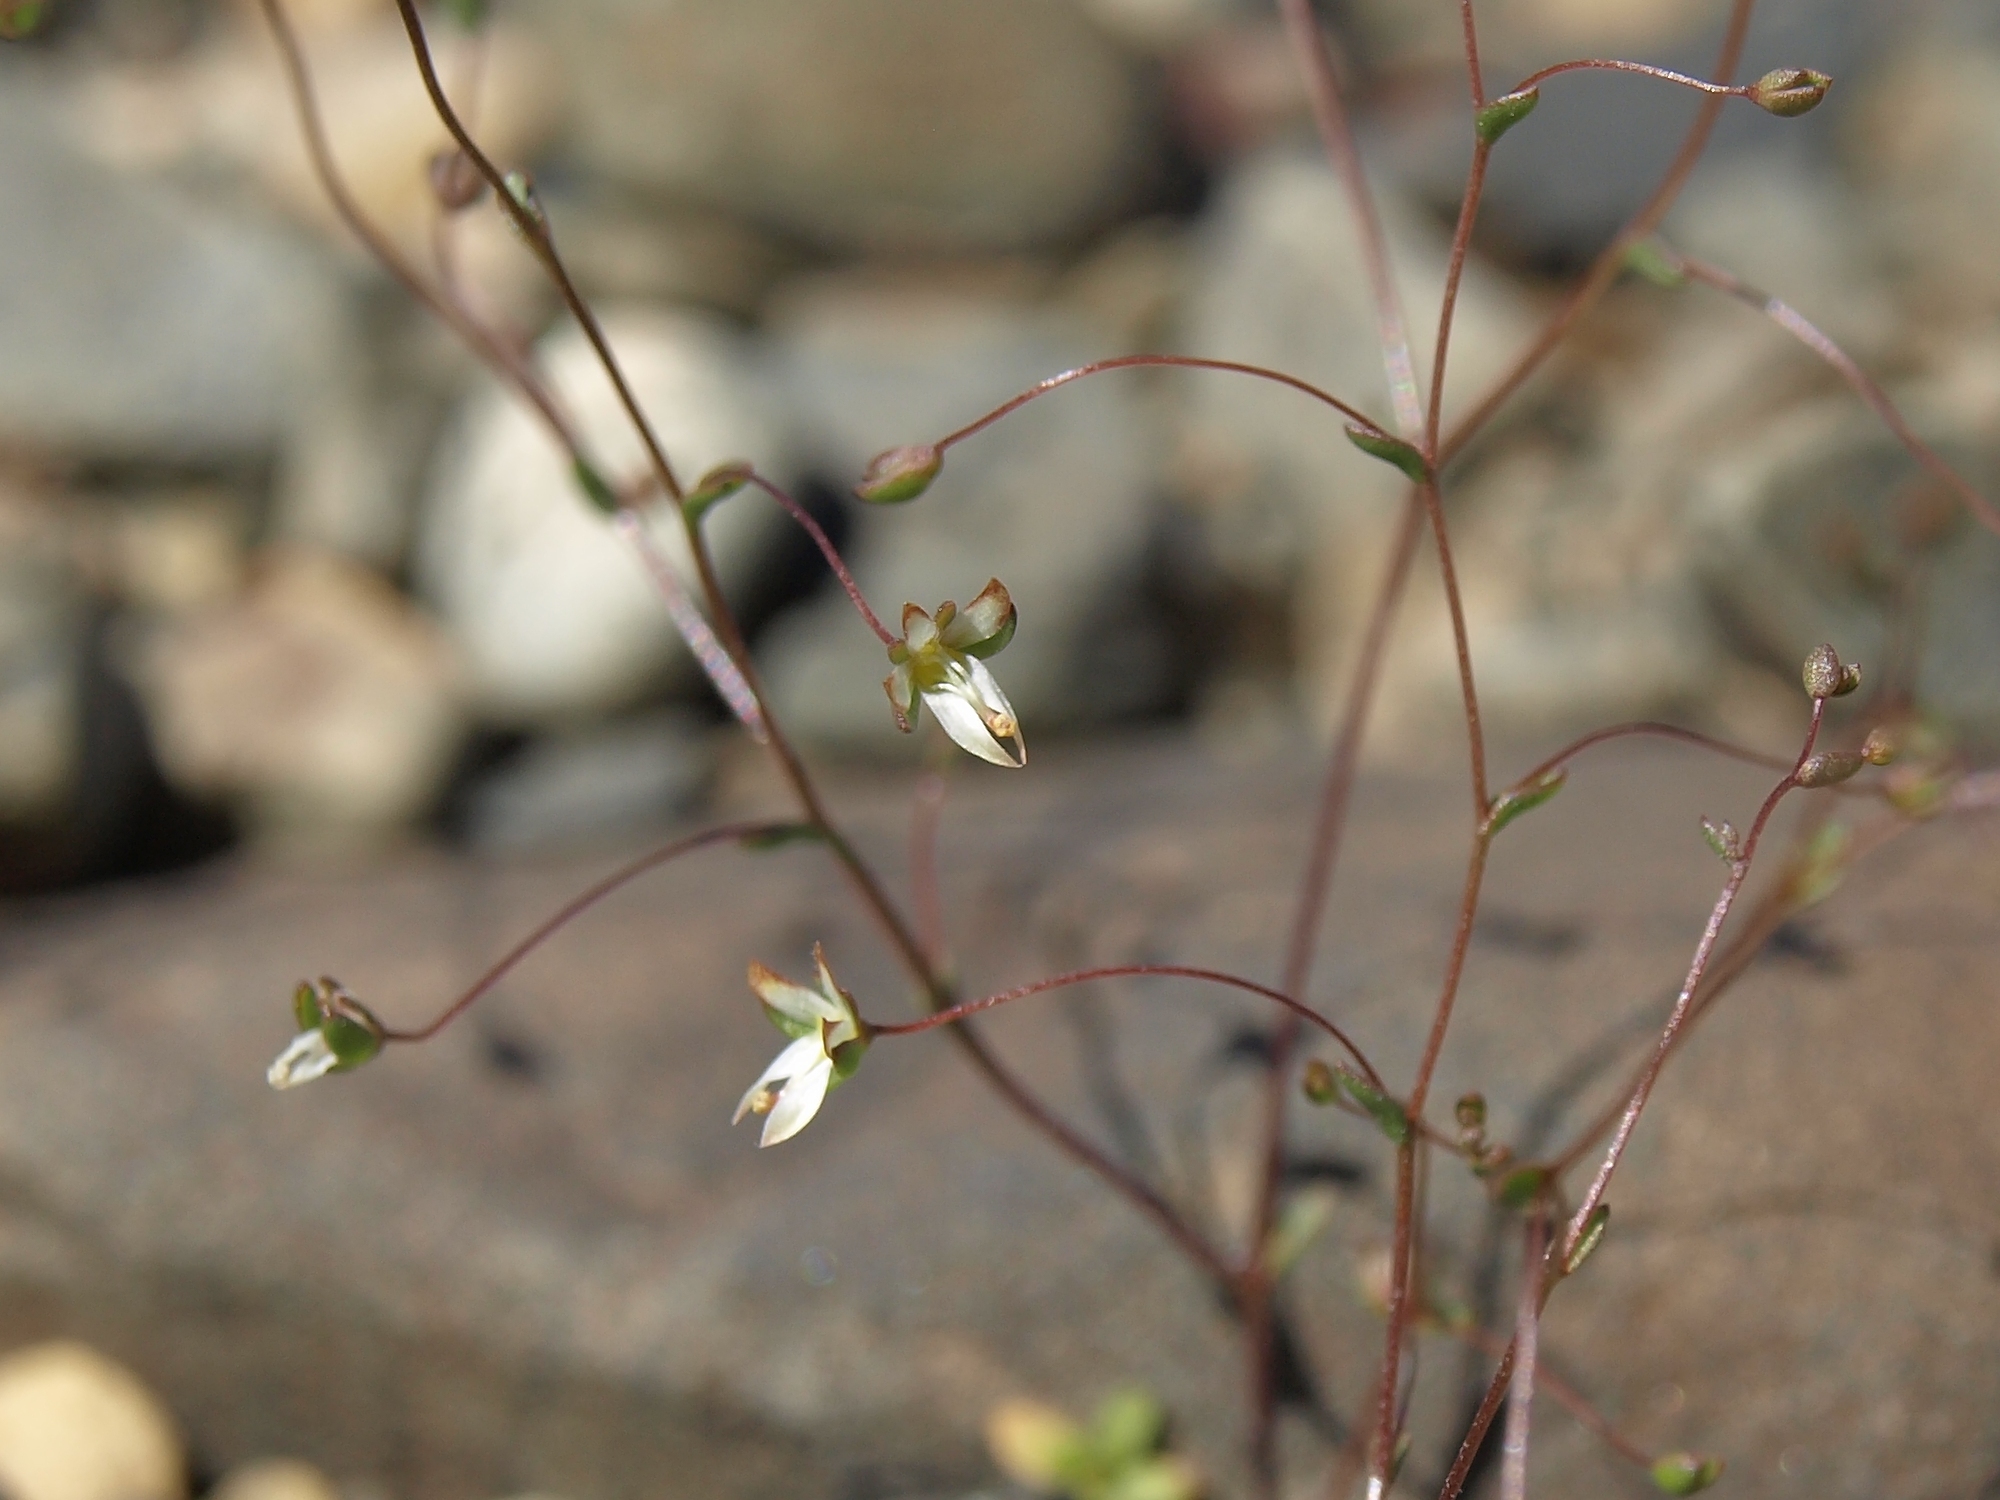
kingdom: Plantae
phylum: Tracheophyta
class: Magnoliopsida
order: Asterales
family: Campanulaceae
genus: Nemacladus
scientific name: Nemacladus morefieldii
